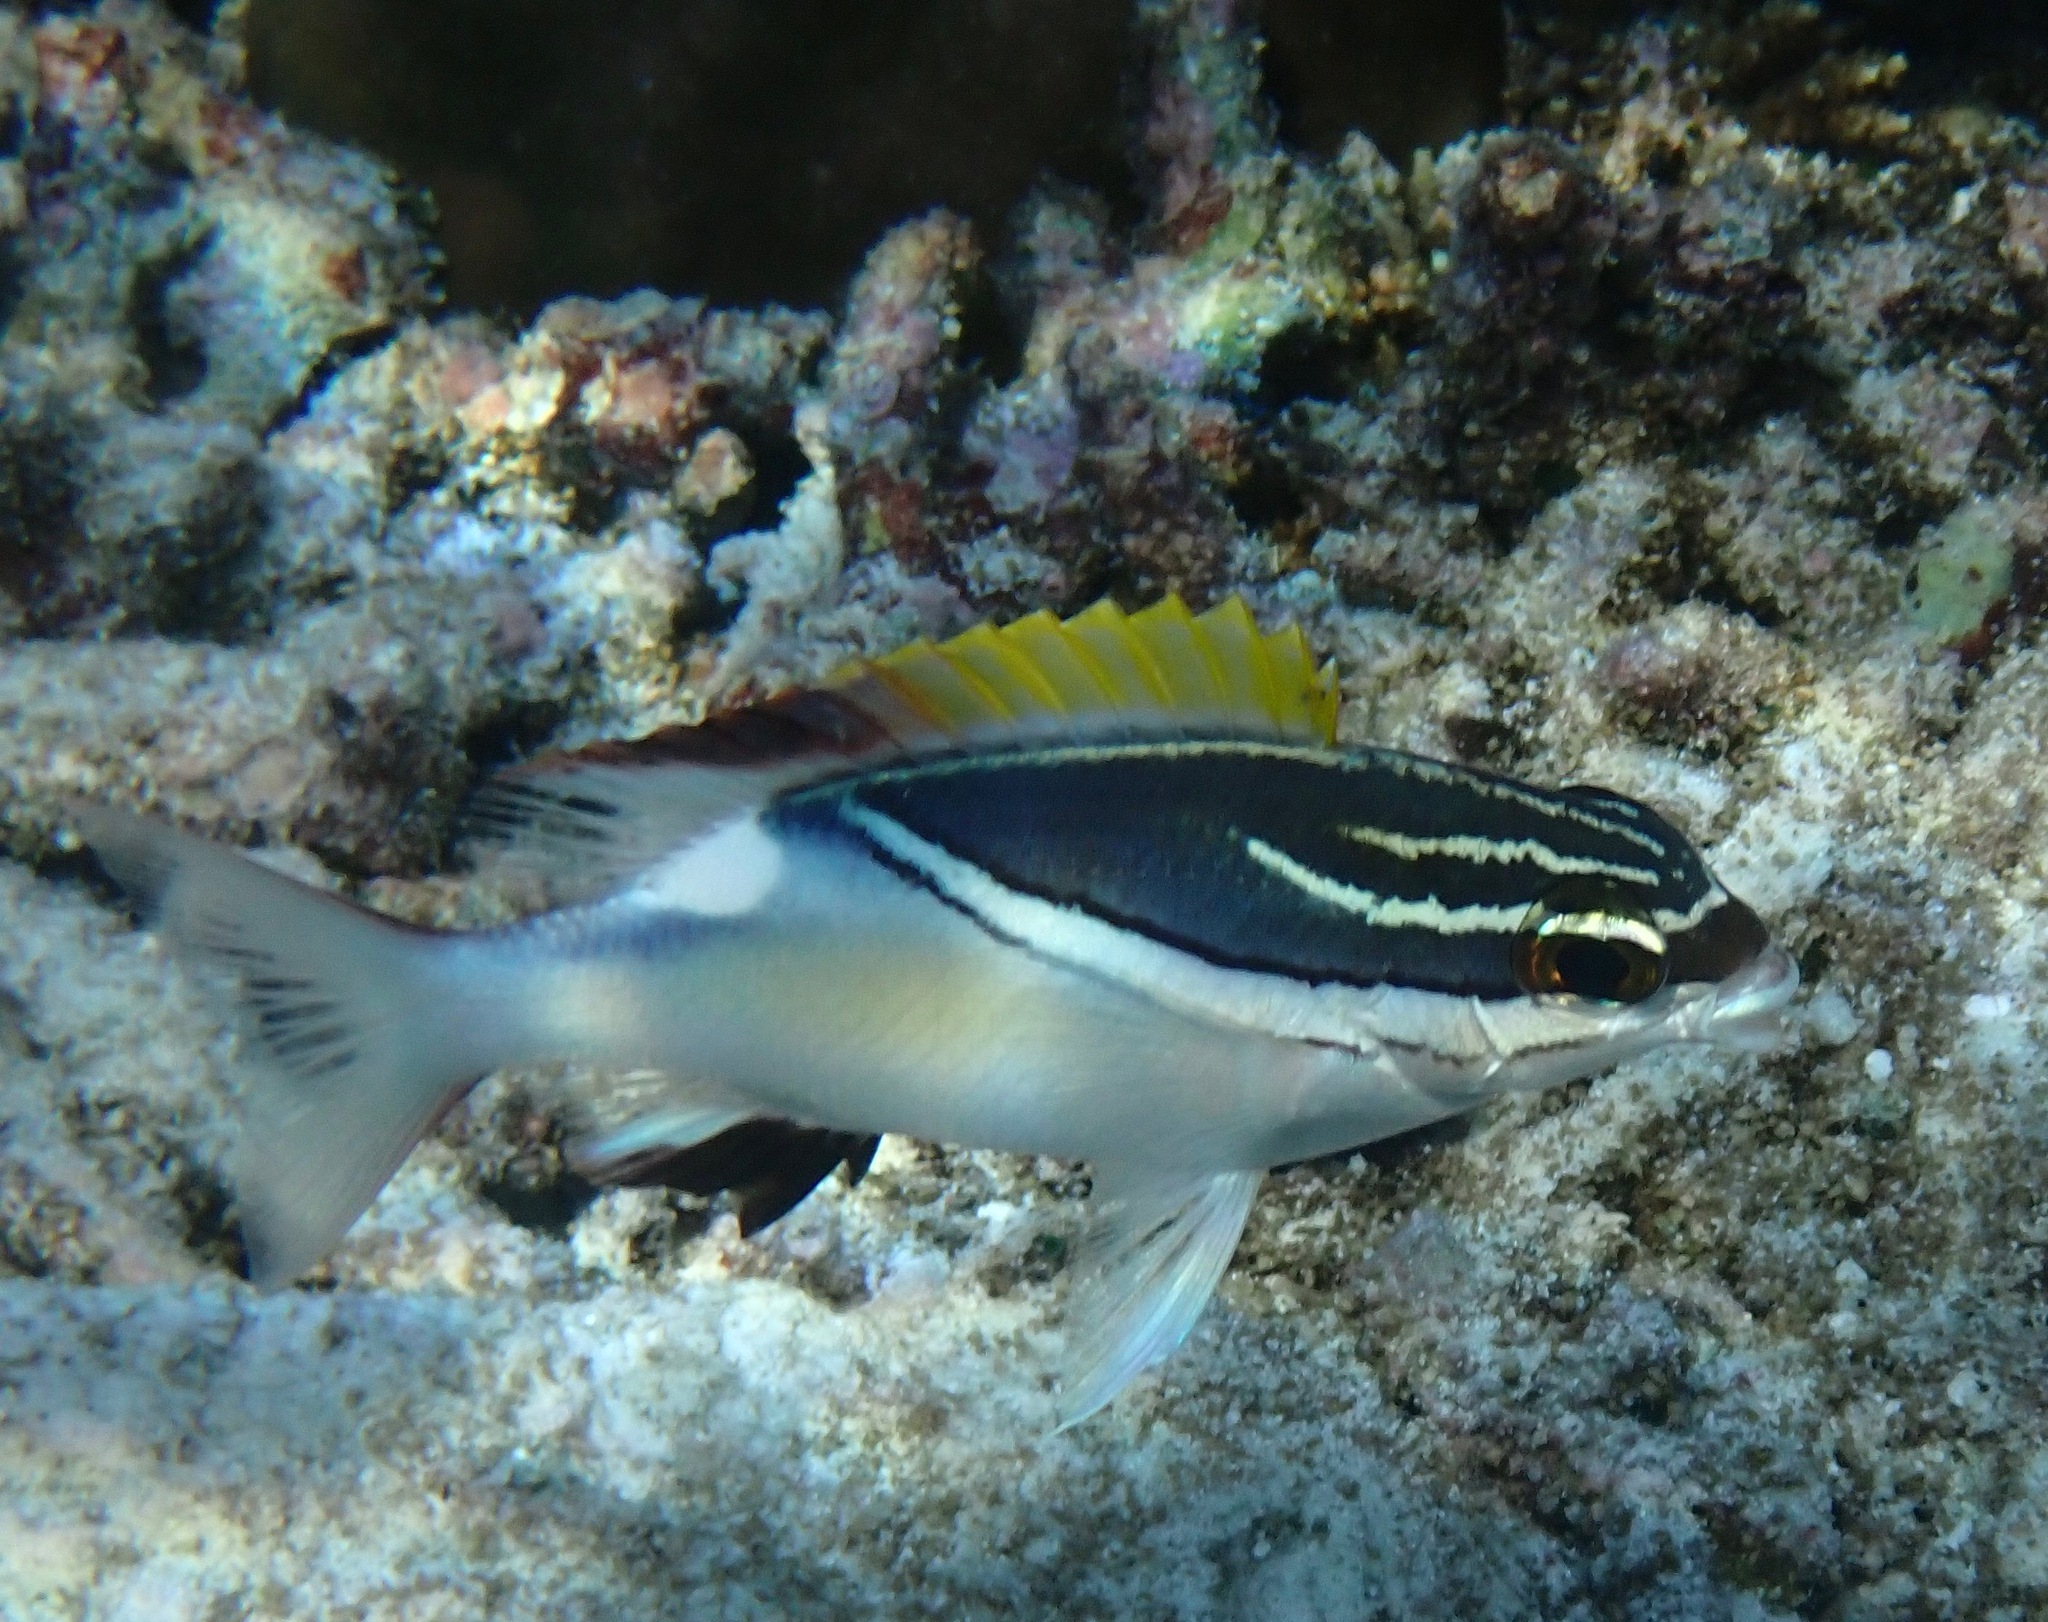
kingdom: Animalia
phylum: Chordata
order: Perciformes
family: Nemipteridae
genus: Scolopsis
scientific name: Scolopsis bilineata
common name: Two-lined monocle bream
